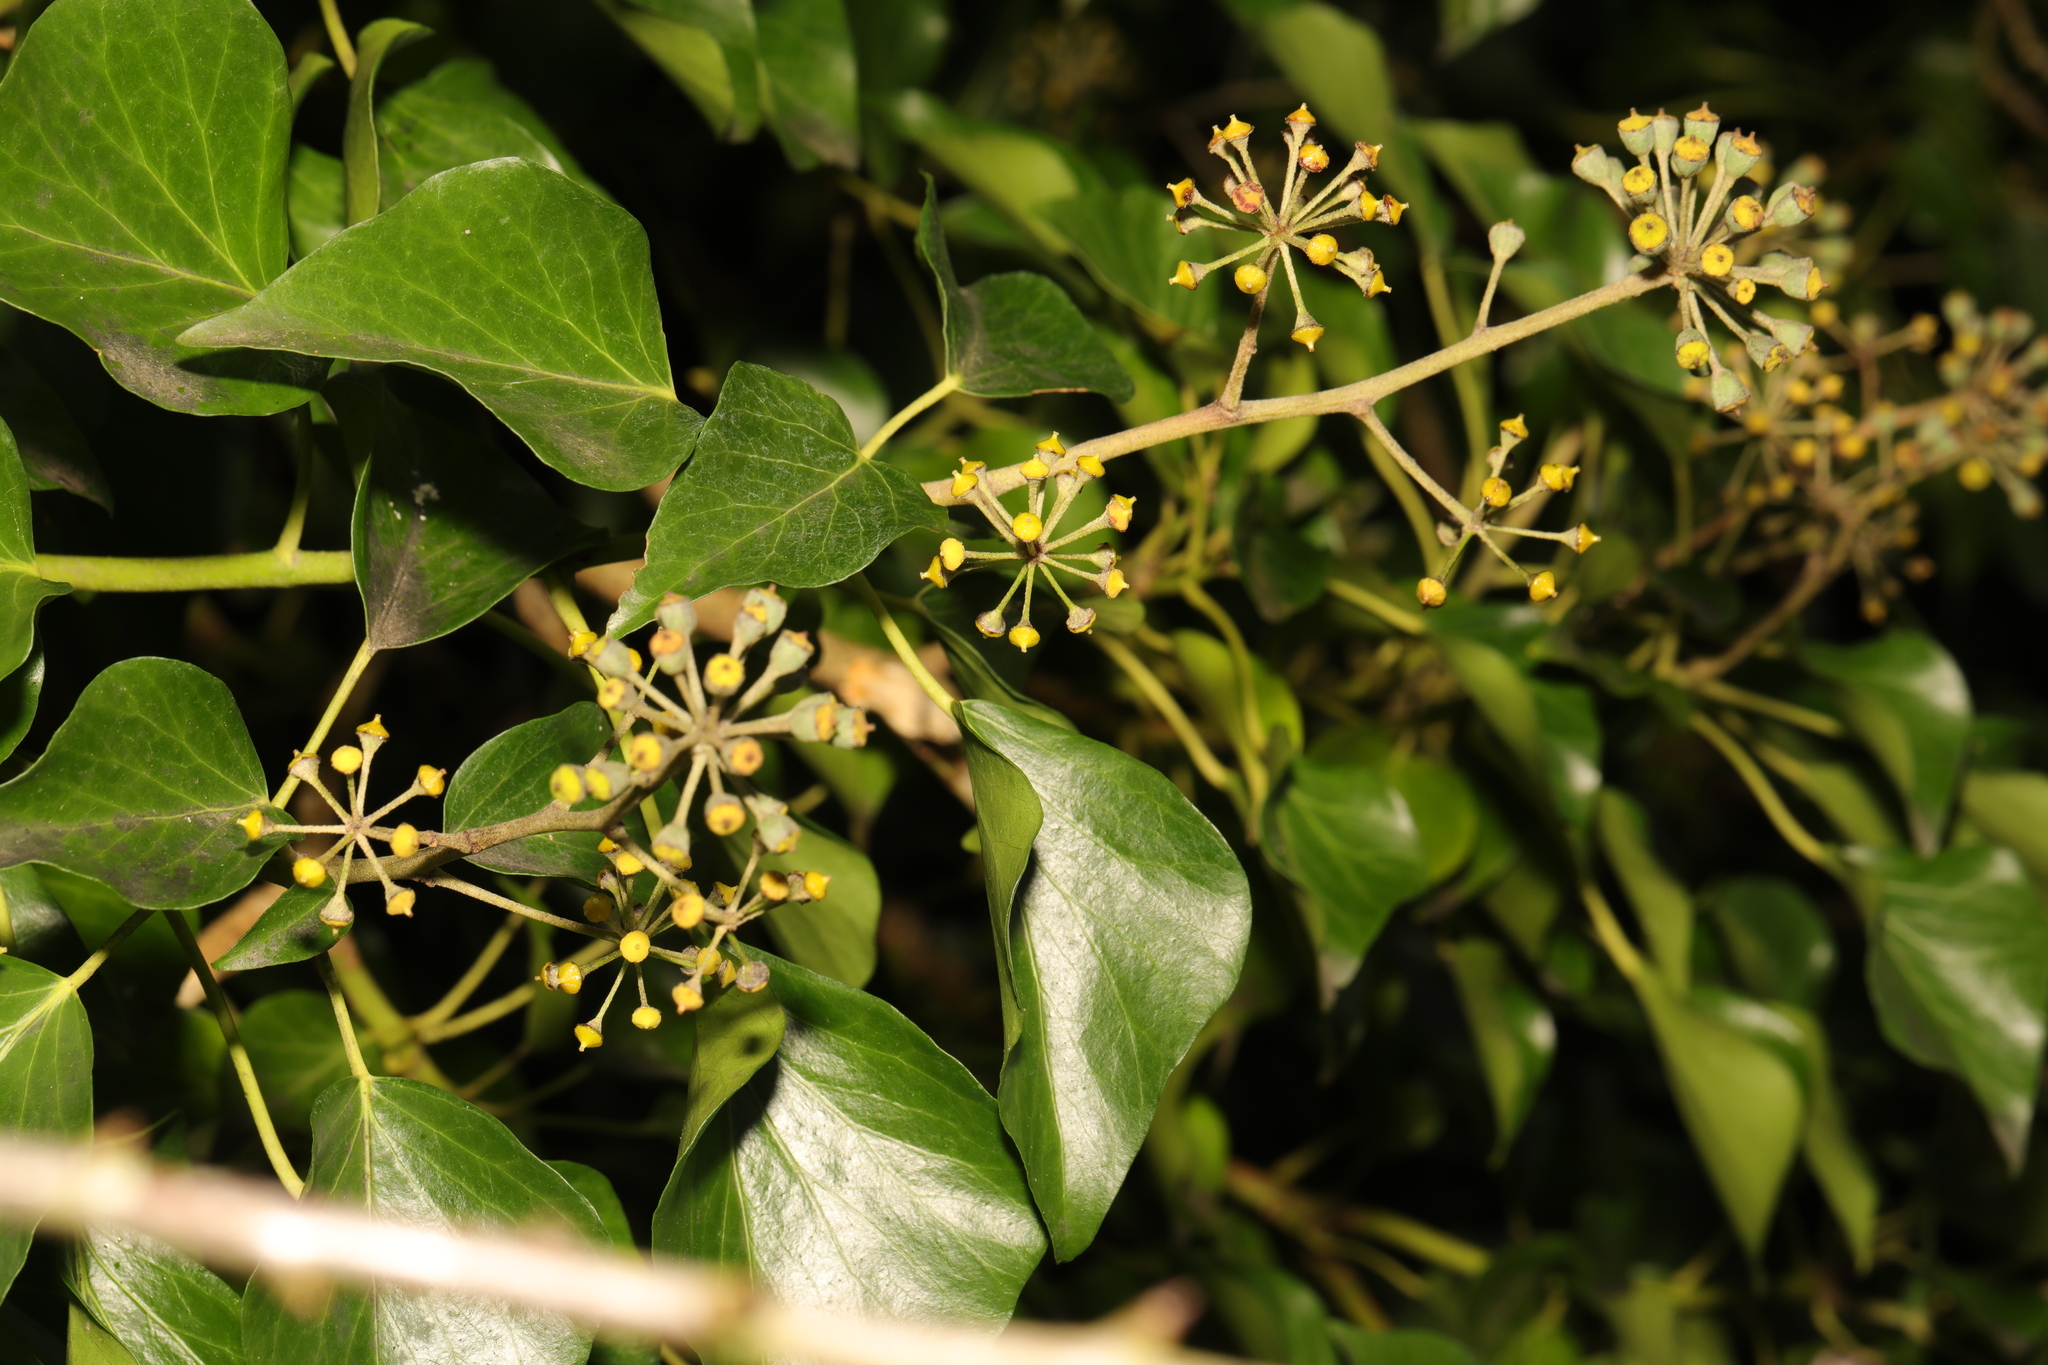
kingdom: Plantae
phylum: Tracheophyta
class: Magnoliopsida
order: Apiales
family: Araliaceae
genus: Hedera
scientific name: Hedera helix
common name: Ivy
